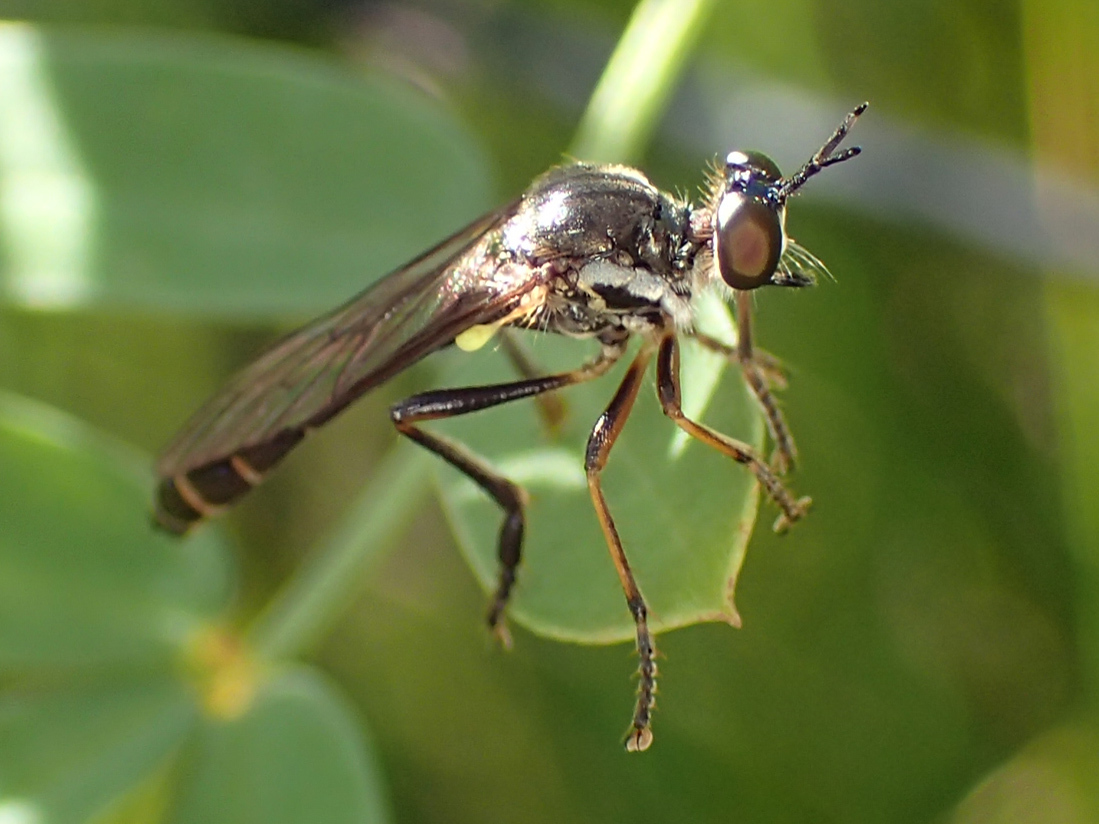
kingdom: Animalia
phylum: Arthropoda
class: Insecta
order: Diptera
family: Asilidae
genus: Dioctria
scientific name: Dioctria hyalipennis
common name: Stripe-legged robberfly
